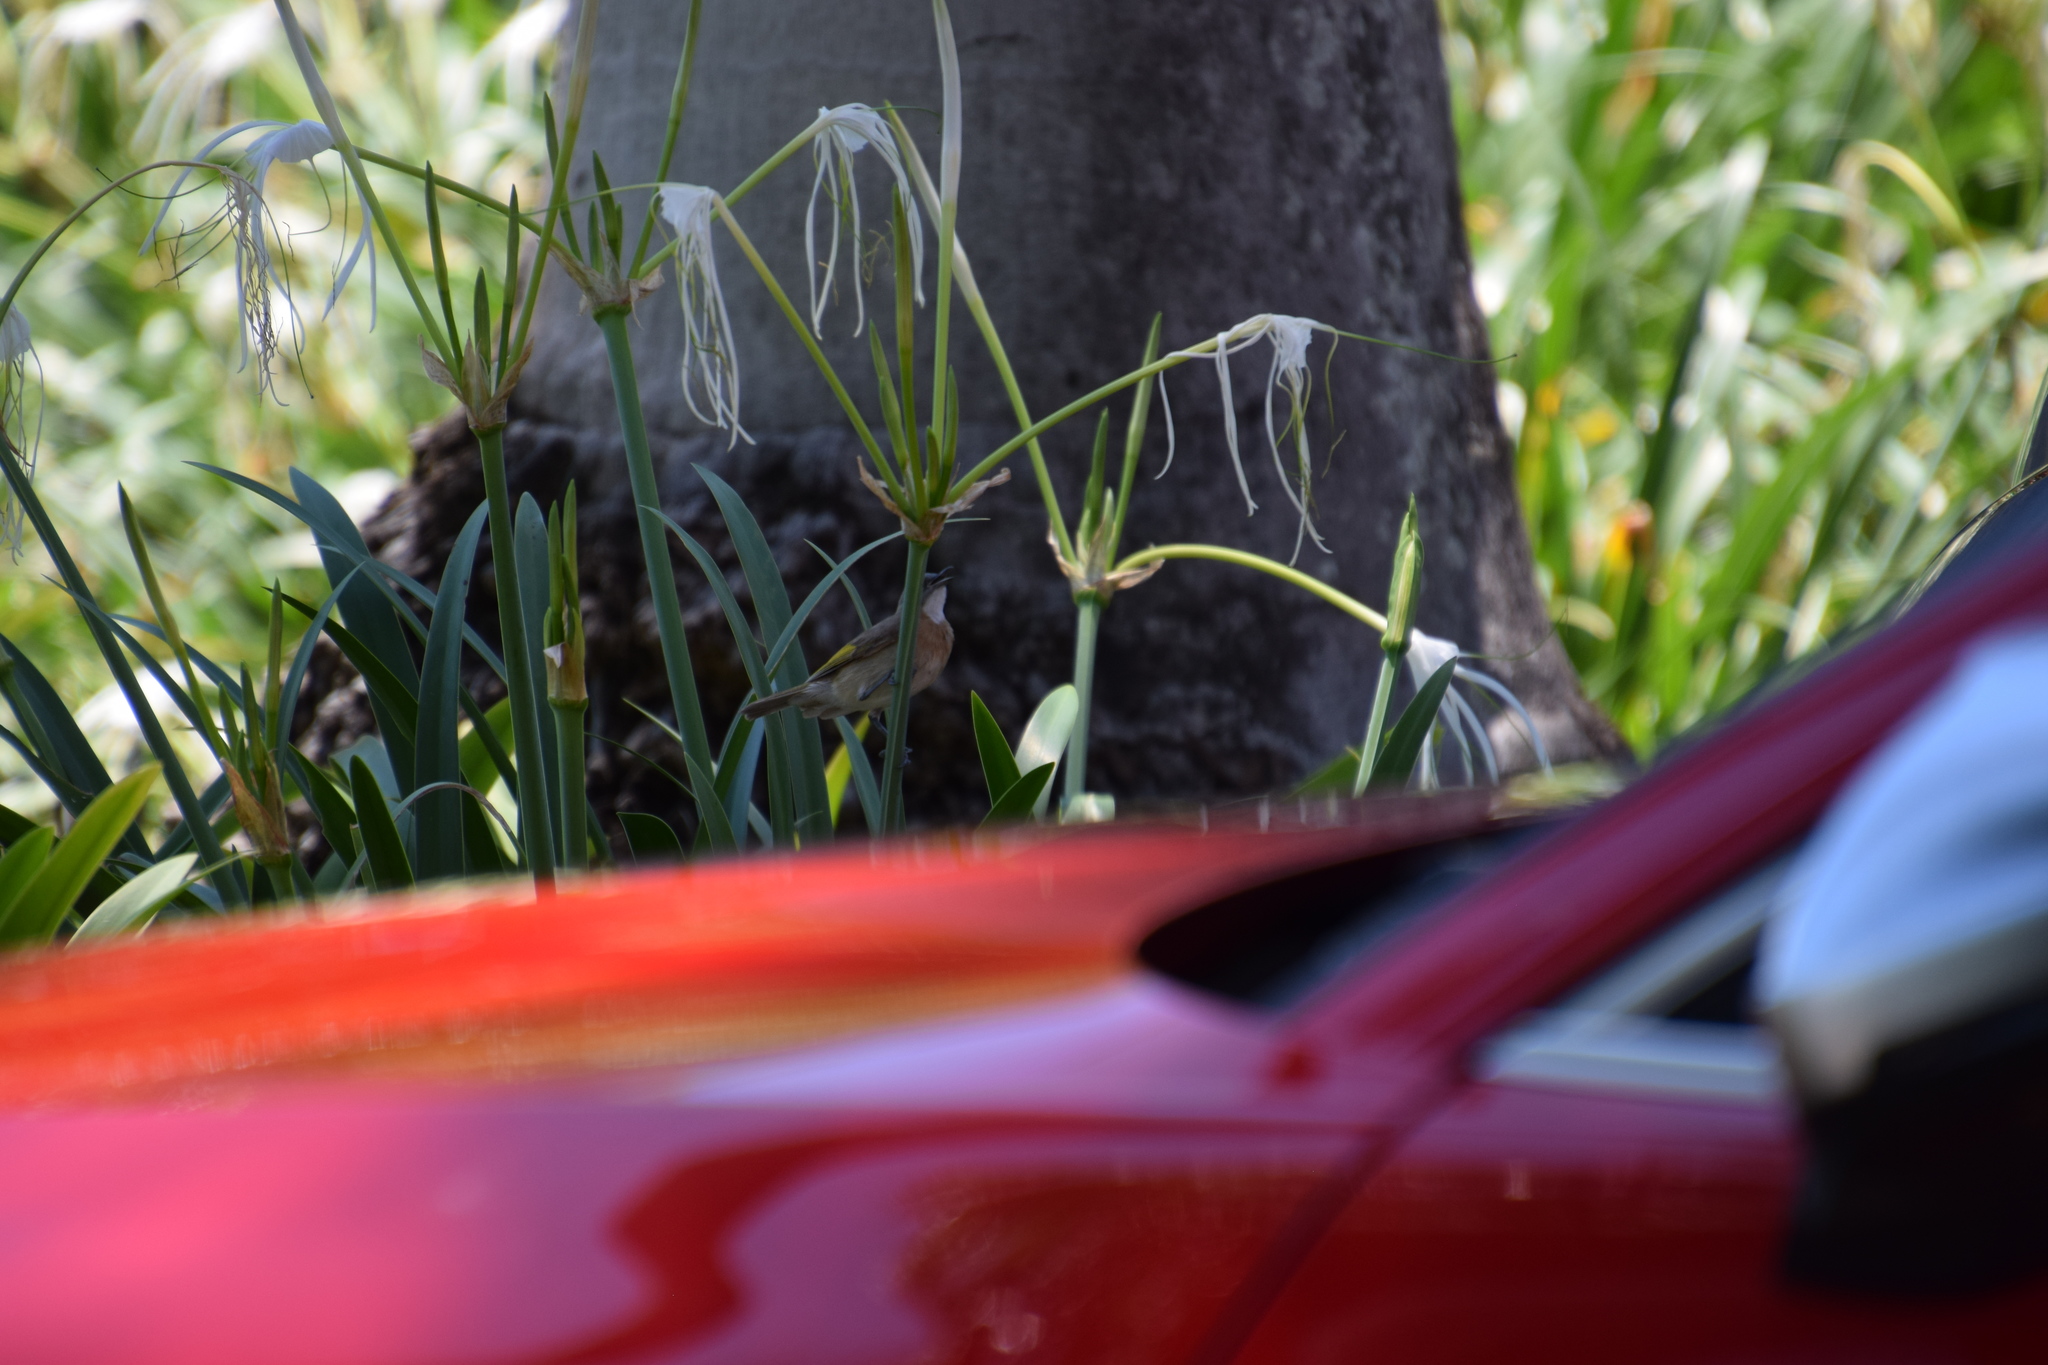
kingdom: Animalia
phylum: Chordata
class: Aves
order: Passeriformes
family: Meliphagidae
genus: Conopophila
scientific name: Conopophila albogularis
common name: Rufous-banded honeyeater
